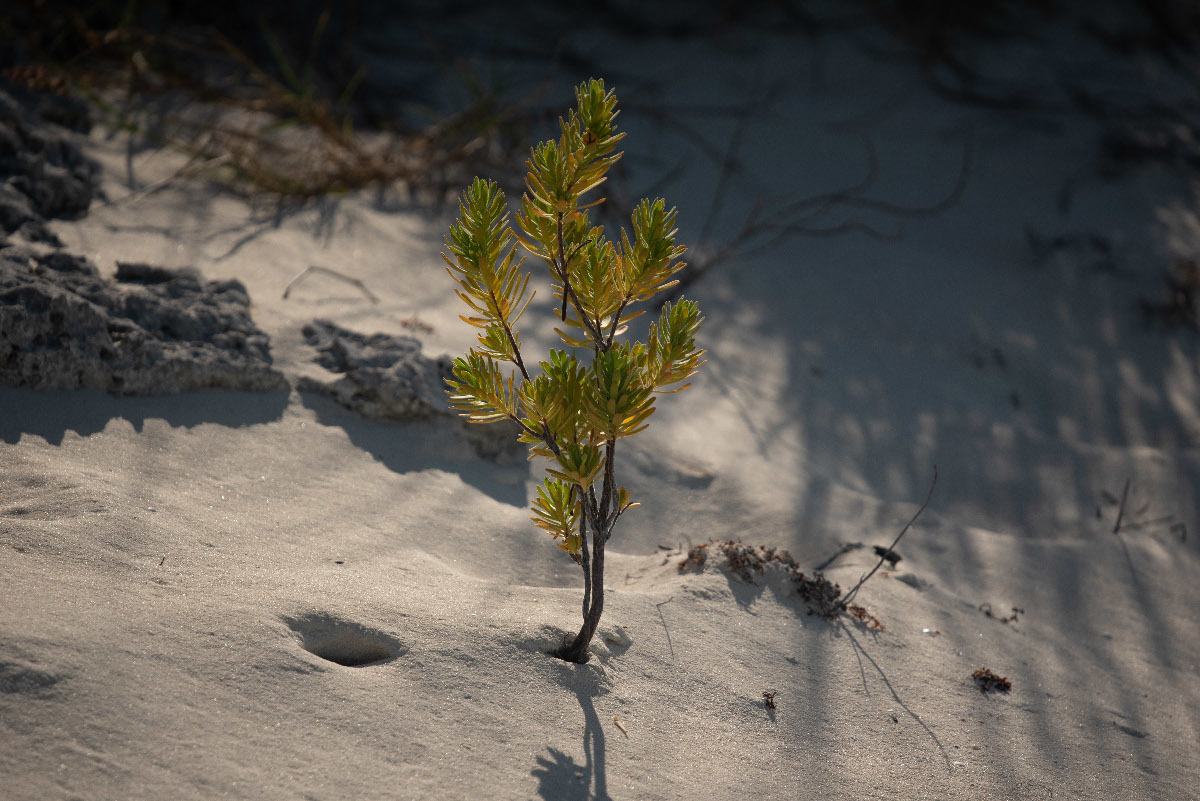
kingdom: Plantae
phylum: Tracheophyta
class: Magnoliopsida
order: Fabales
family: Surianaceae
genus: Suriana
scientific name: Suriana maritima
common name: Bay-cedar
